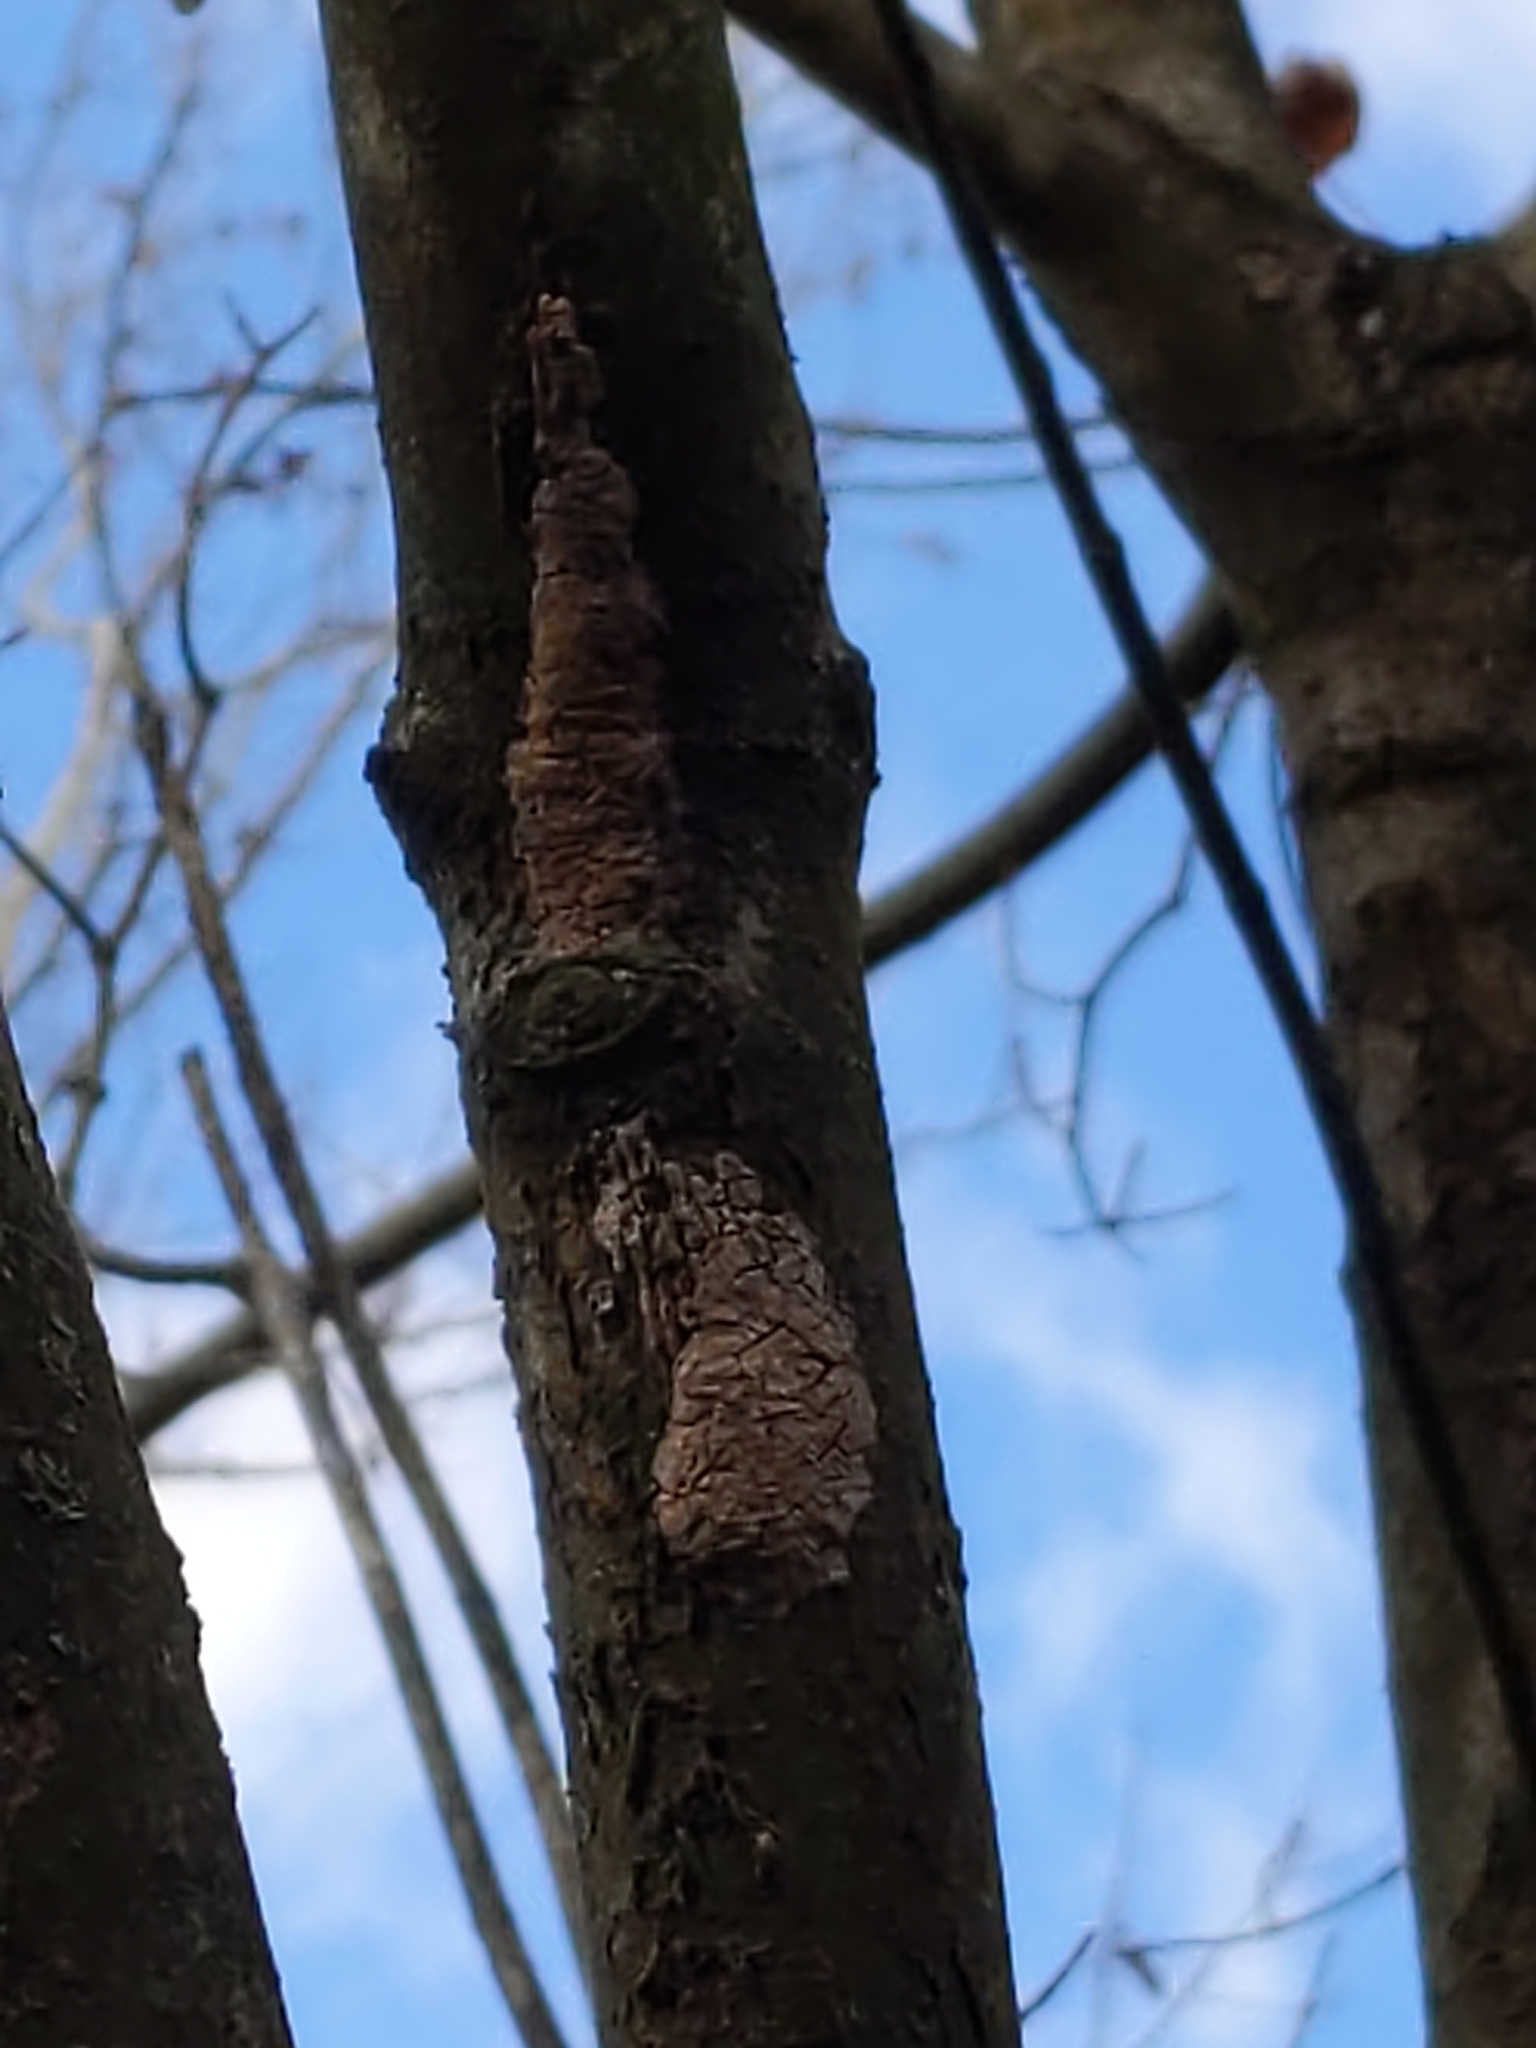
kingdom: Animalia
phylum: Arthropoda
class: Insecta
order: Hemiptera
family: Fulgoridae
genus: Lycorma
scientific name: Lycorma delicatula
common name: Spotted lanternfly
